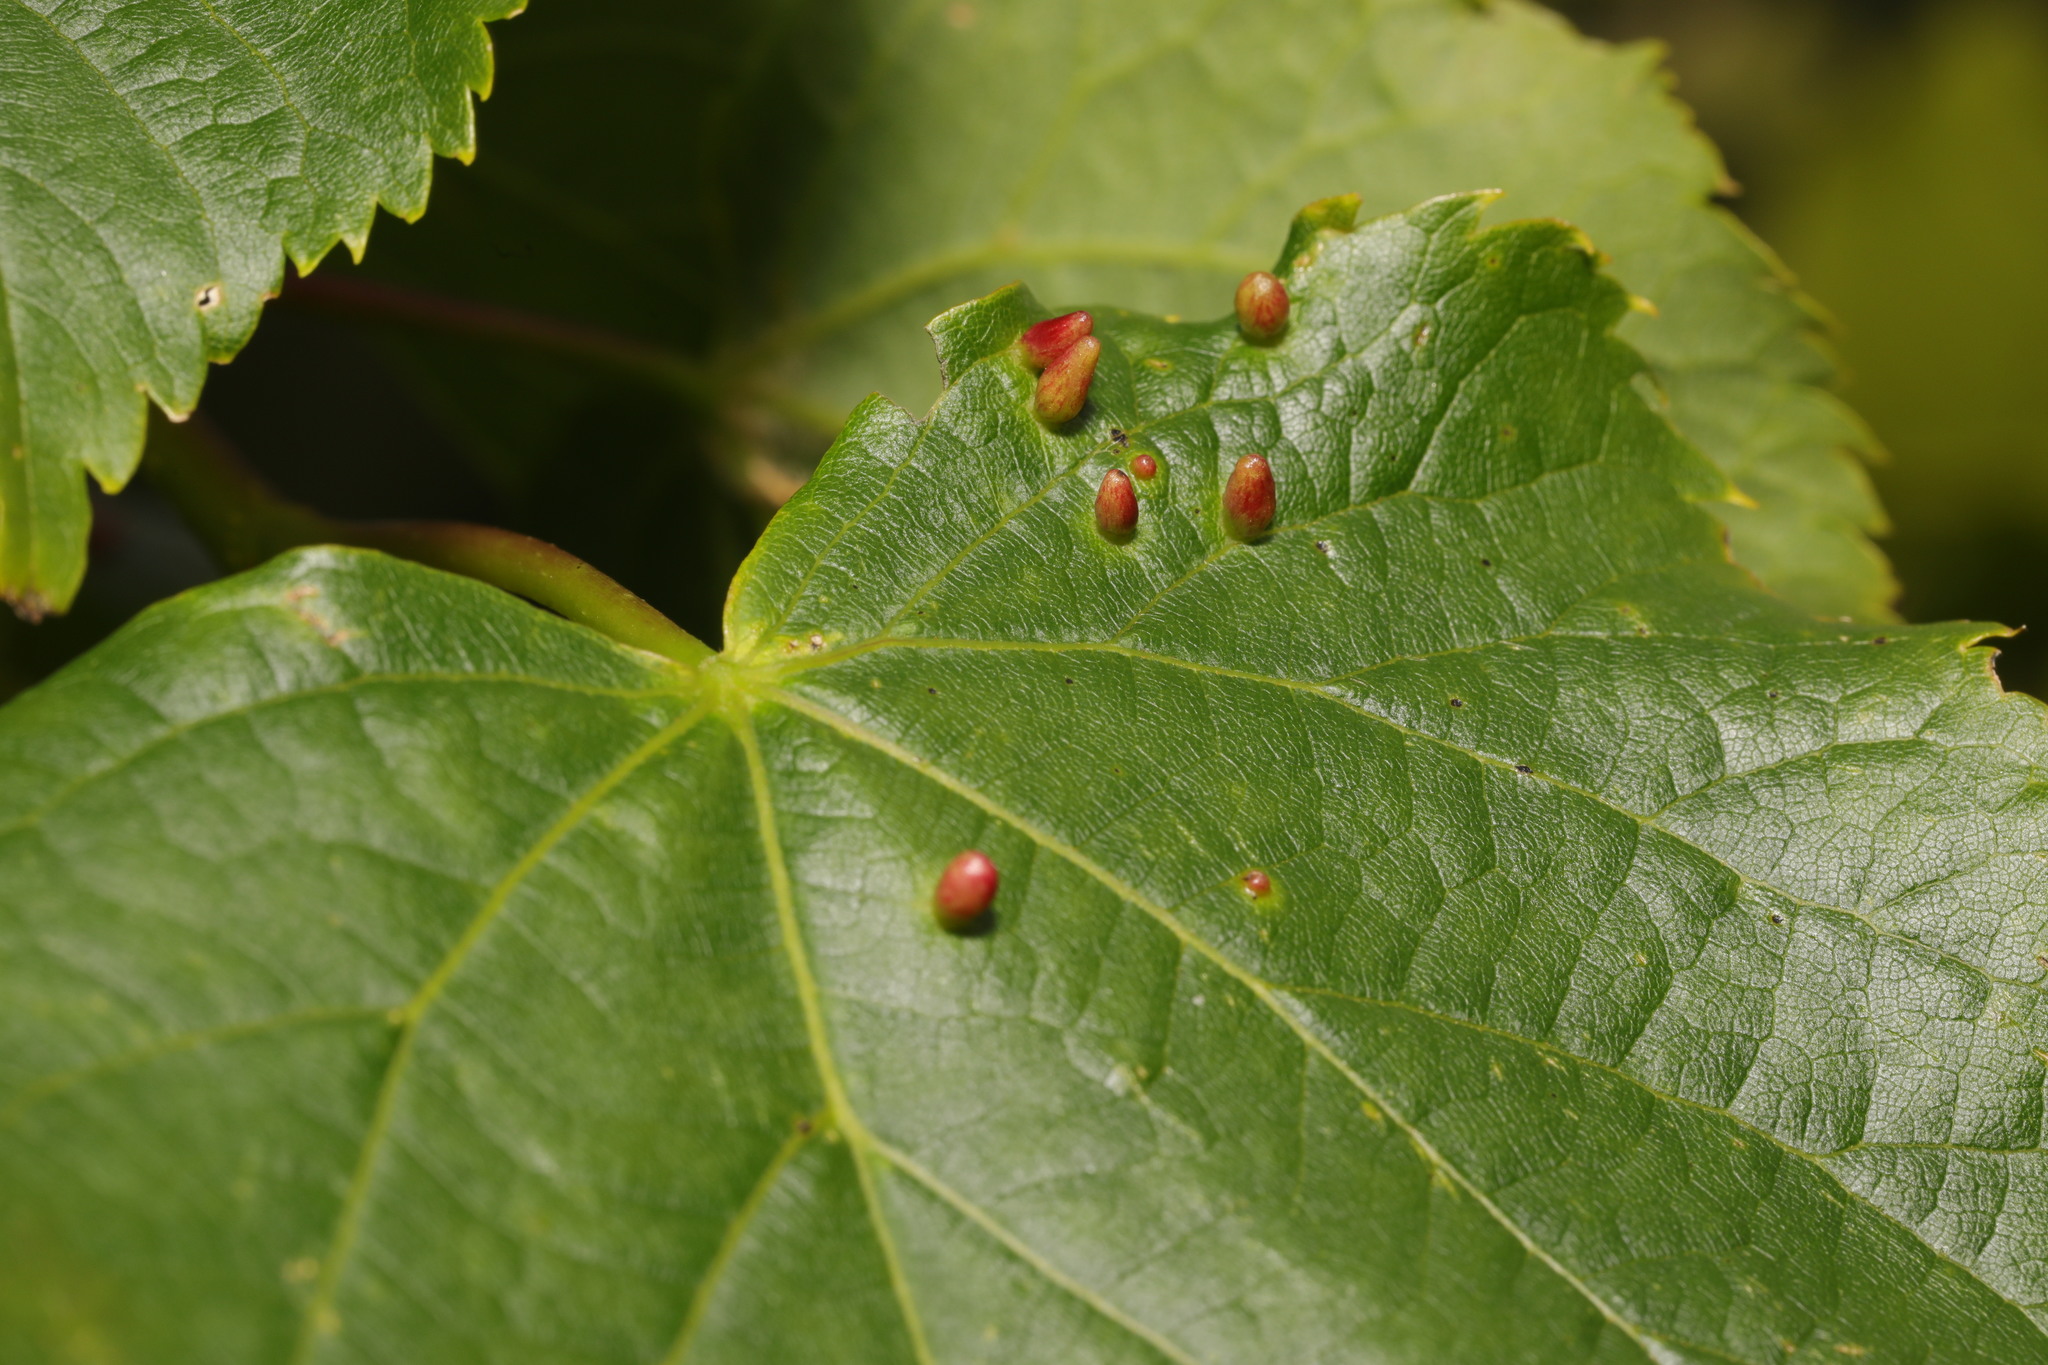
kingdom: Animalia
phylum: Arthropoda
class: Arachnida
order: Trombidiformes
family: Eriophyidae
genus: Eriophyes
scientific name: Eriophyes tiliae
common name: Red nail gall mite
